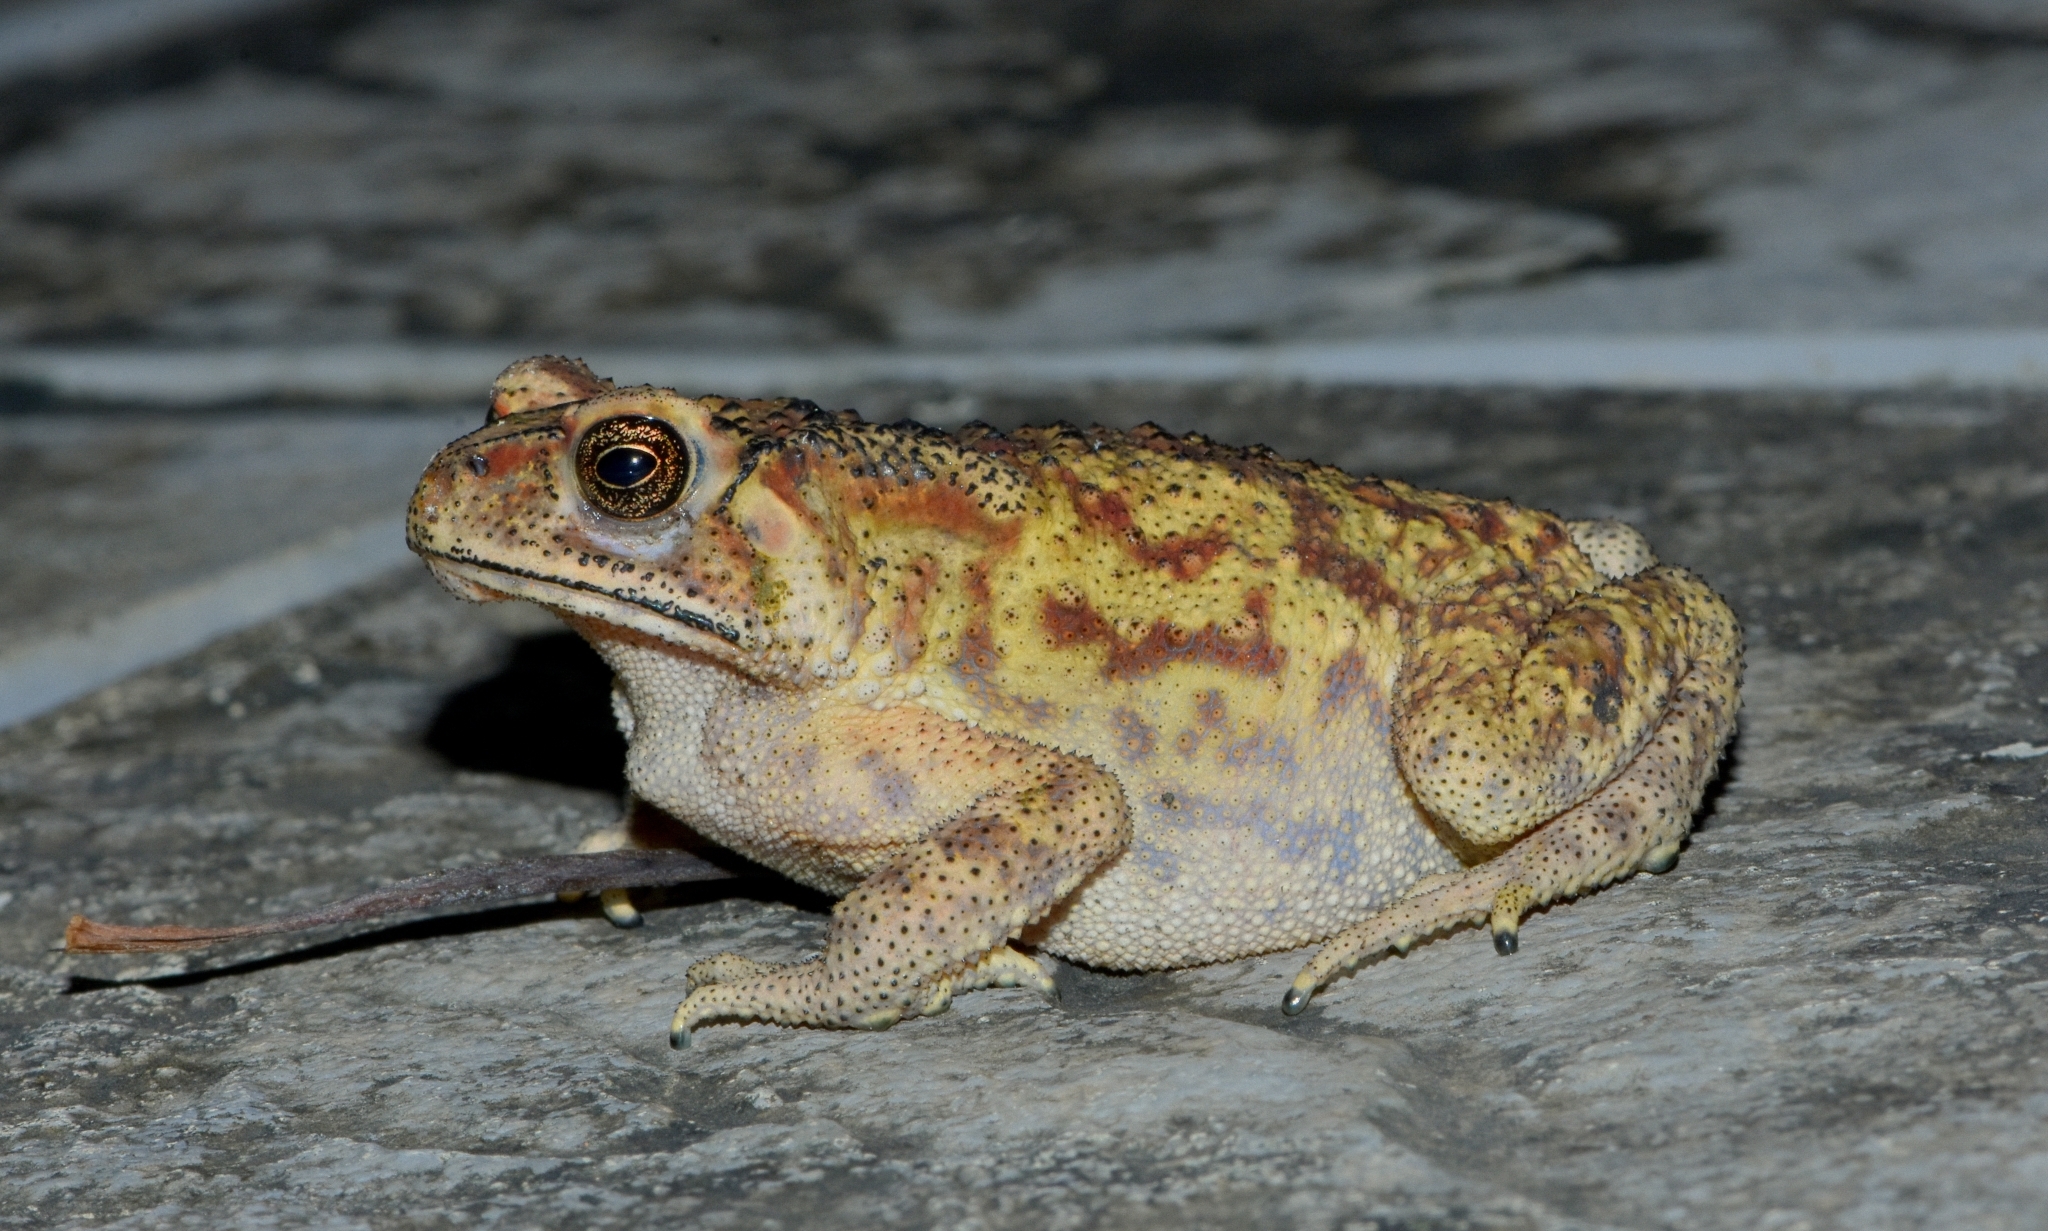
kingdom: Animalia
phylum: Chordata
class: Amphibia
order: Anura
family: Bufonidae
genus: Duttaphrynus
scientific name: Duttaphrynus melanostictus
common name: Common sunda toad
